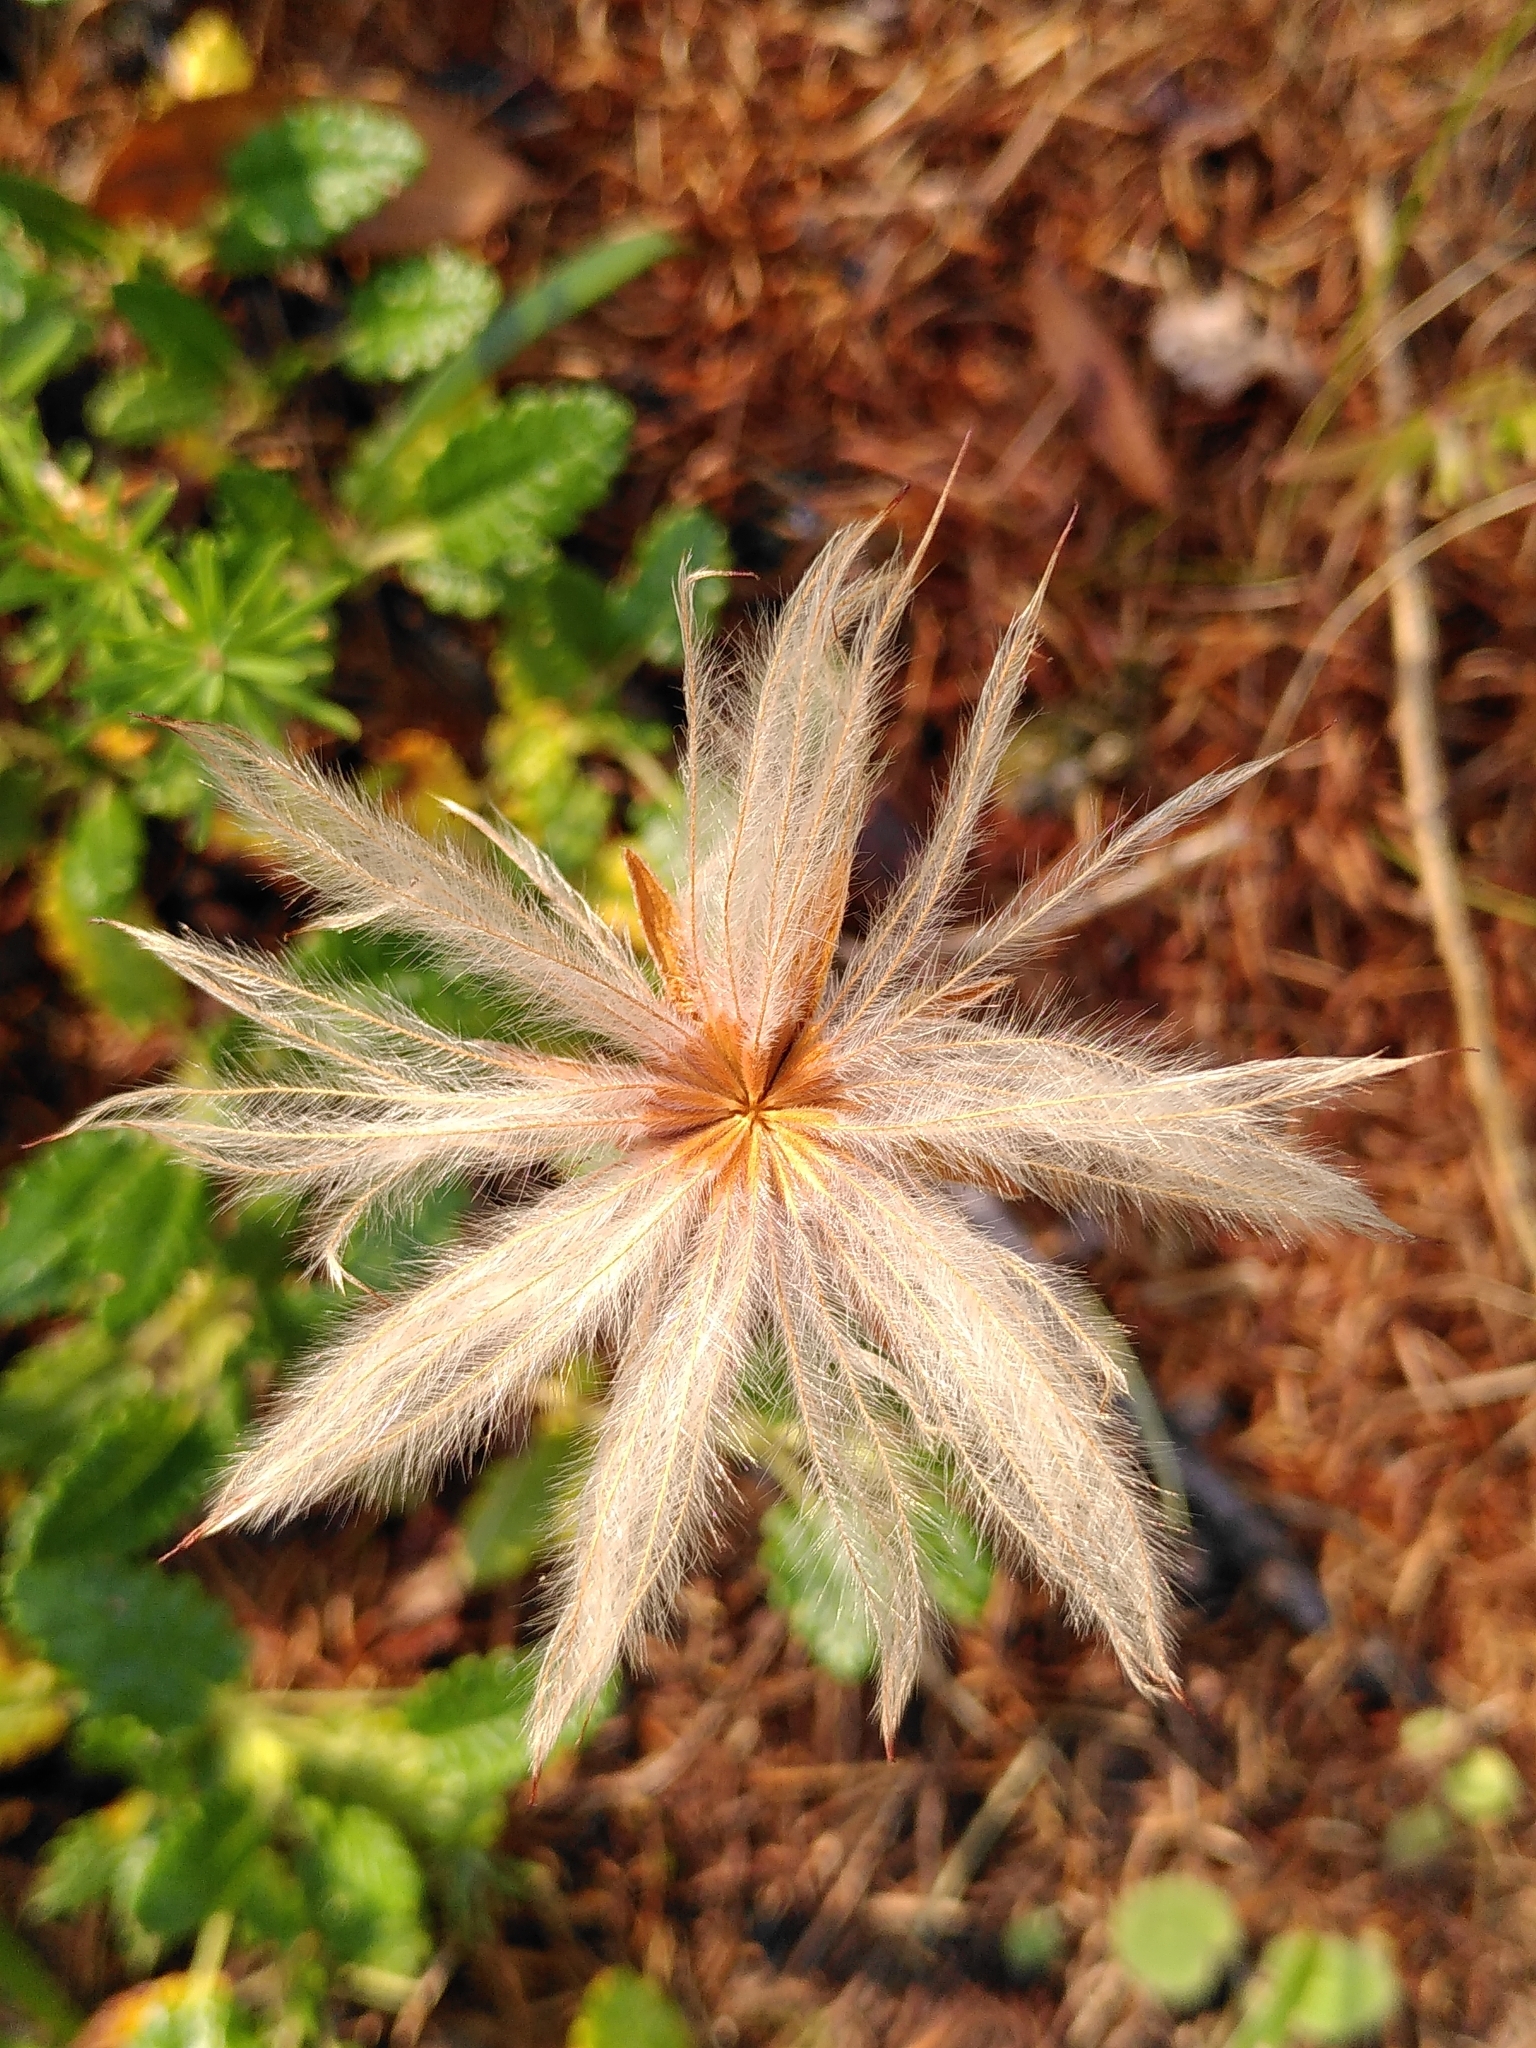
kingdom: Plantae
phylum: Tracheophyta
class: Magnoliopsida
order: Rosales
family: Rosaceae
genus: Dryas
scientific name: Dryas octopetala
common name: Eight-petal mountain-avens
